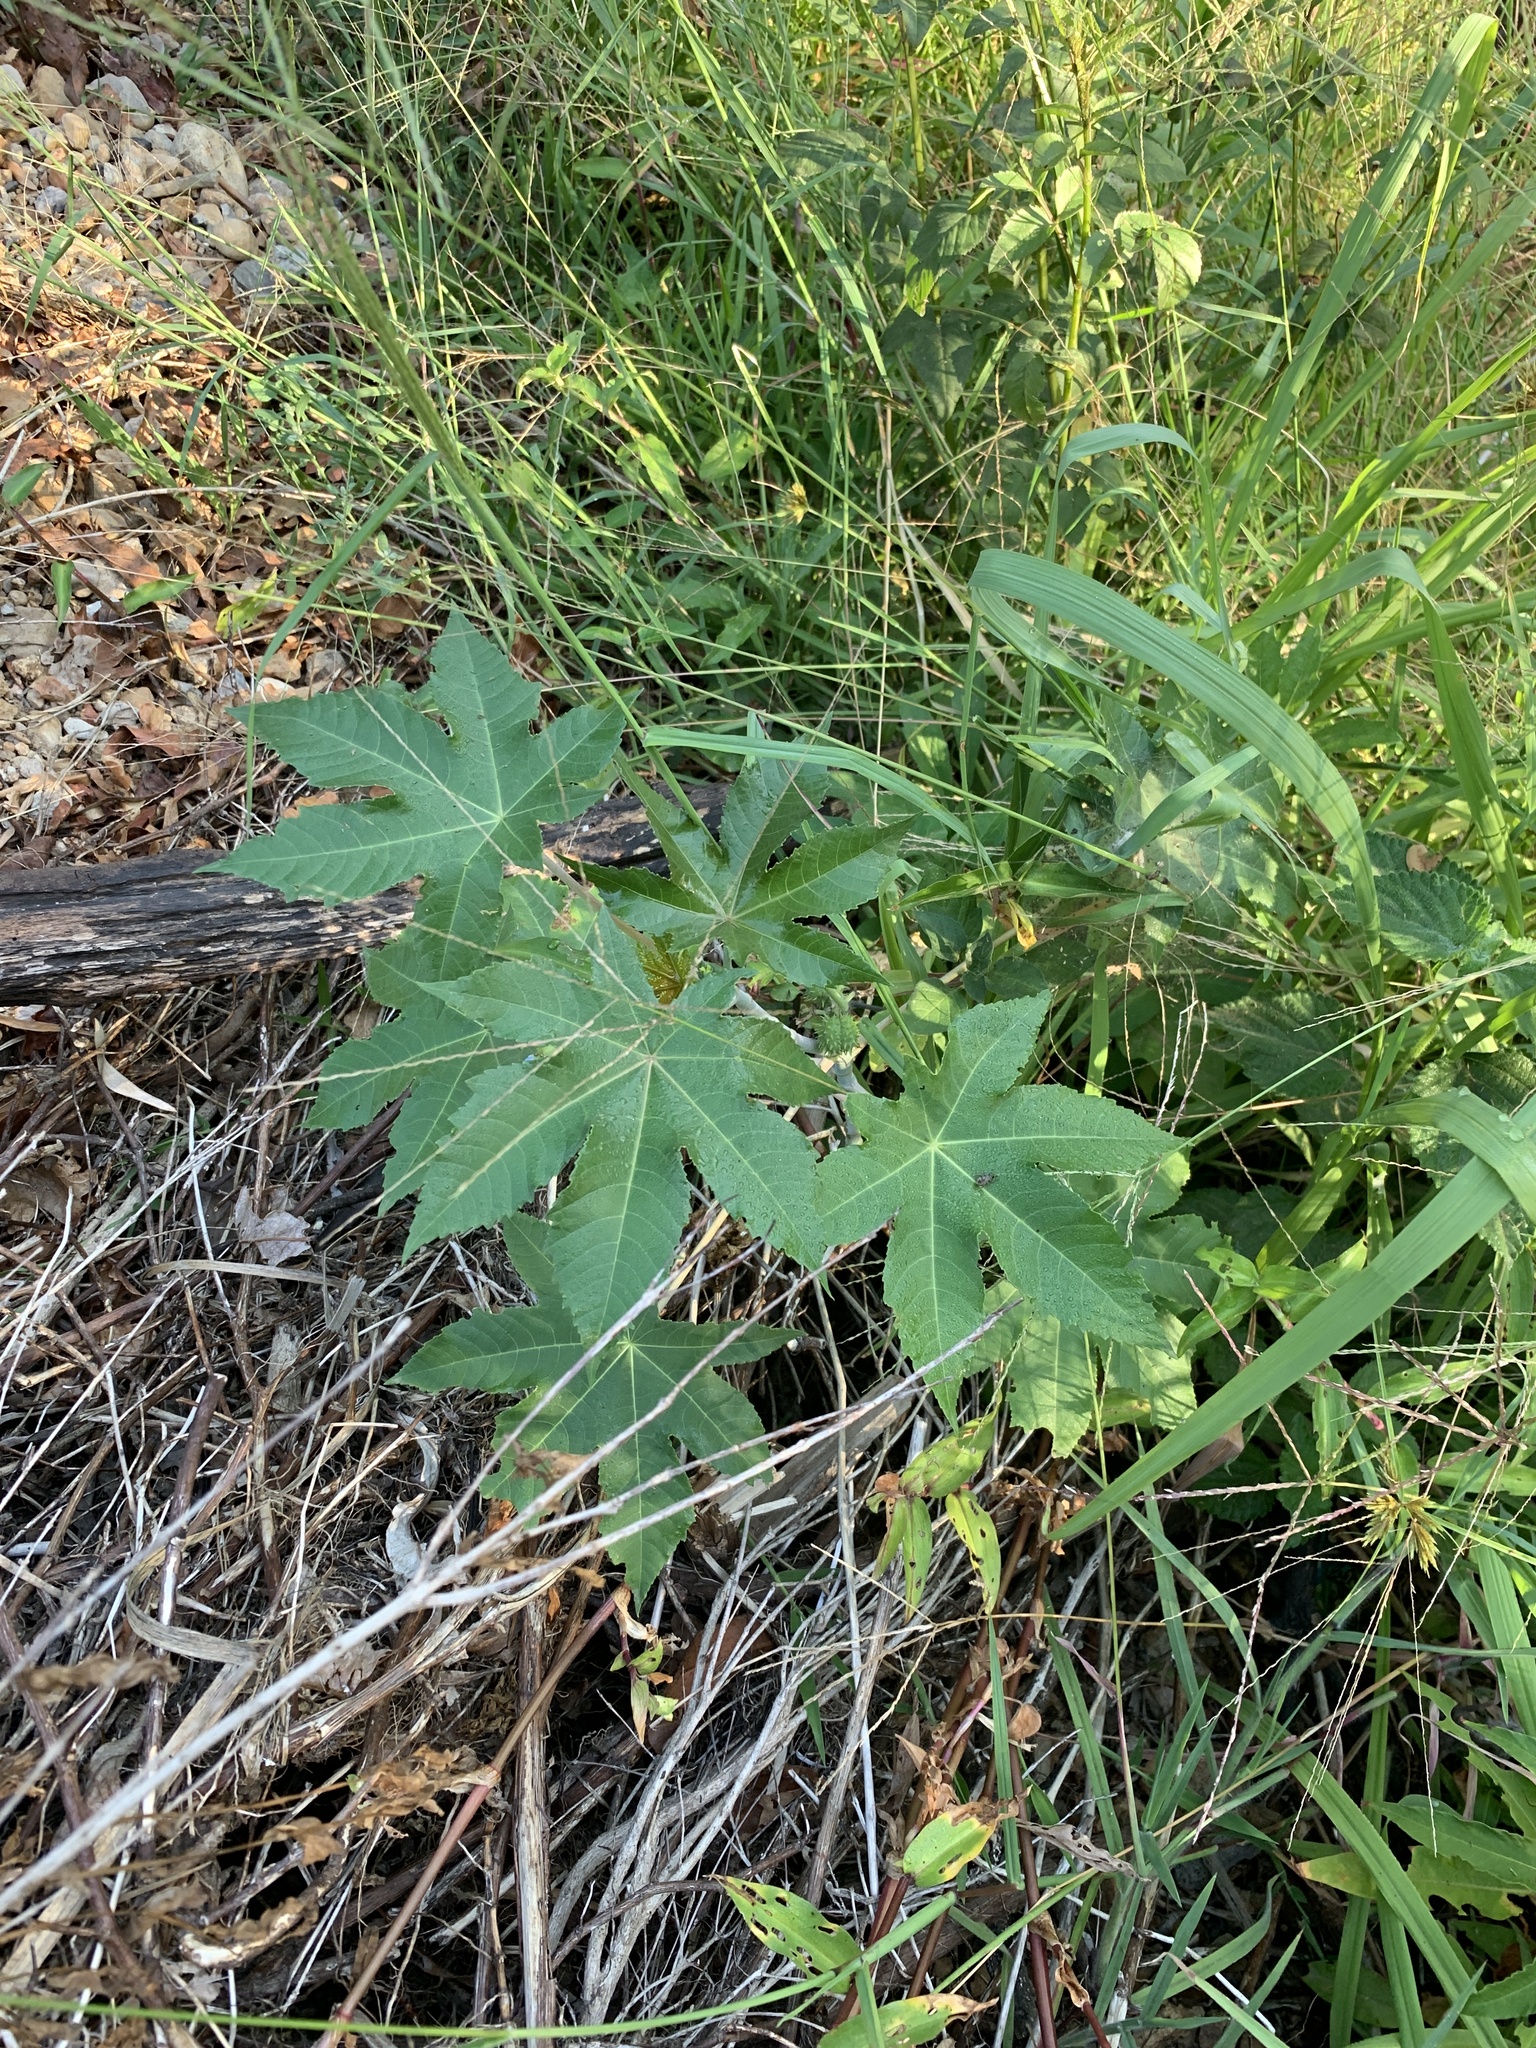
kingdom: Plantae
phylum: Tracheophyta
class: Magnoliopsida
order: Malpighiales
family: Euphorbiaceae
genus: Ricinus
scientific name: Ricinus communis
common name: Castor-oil-plant
